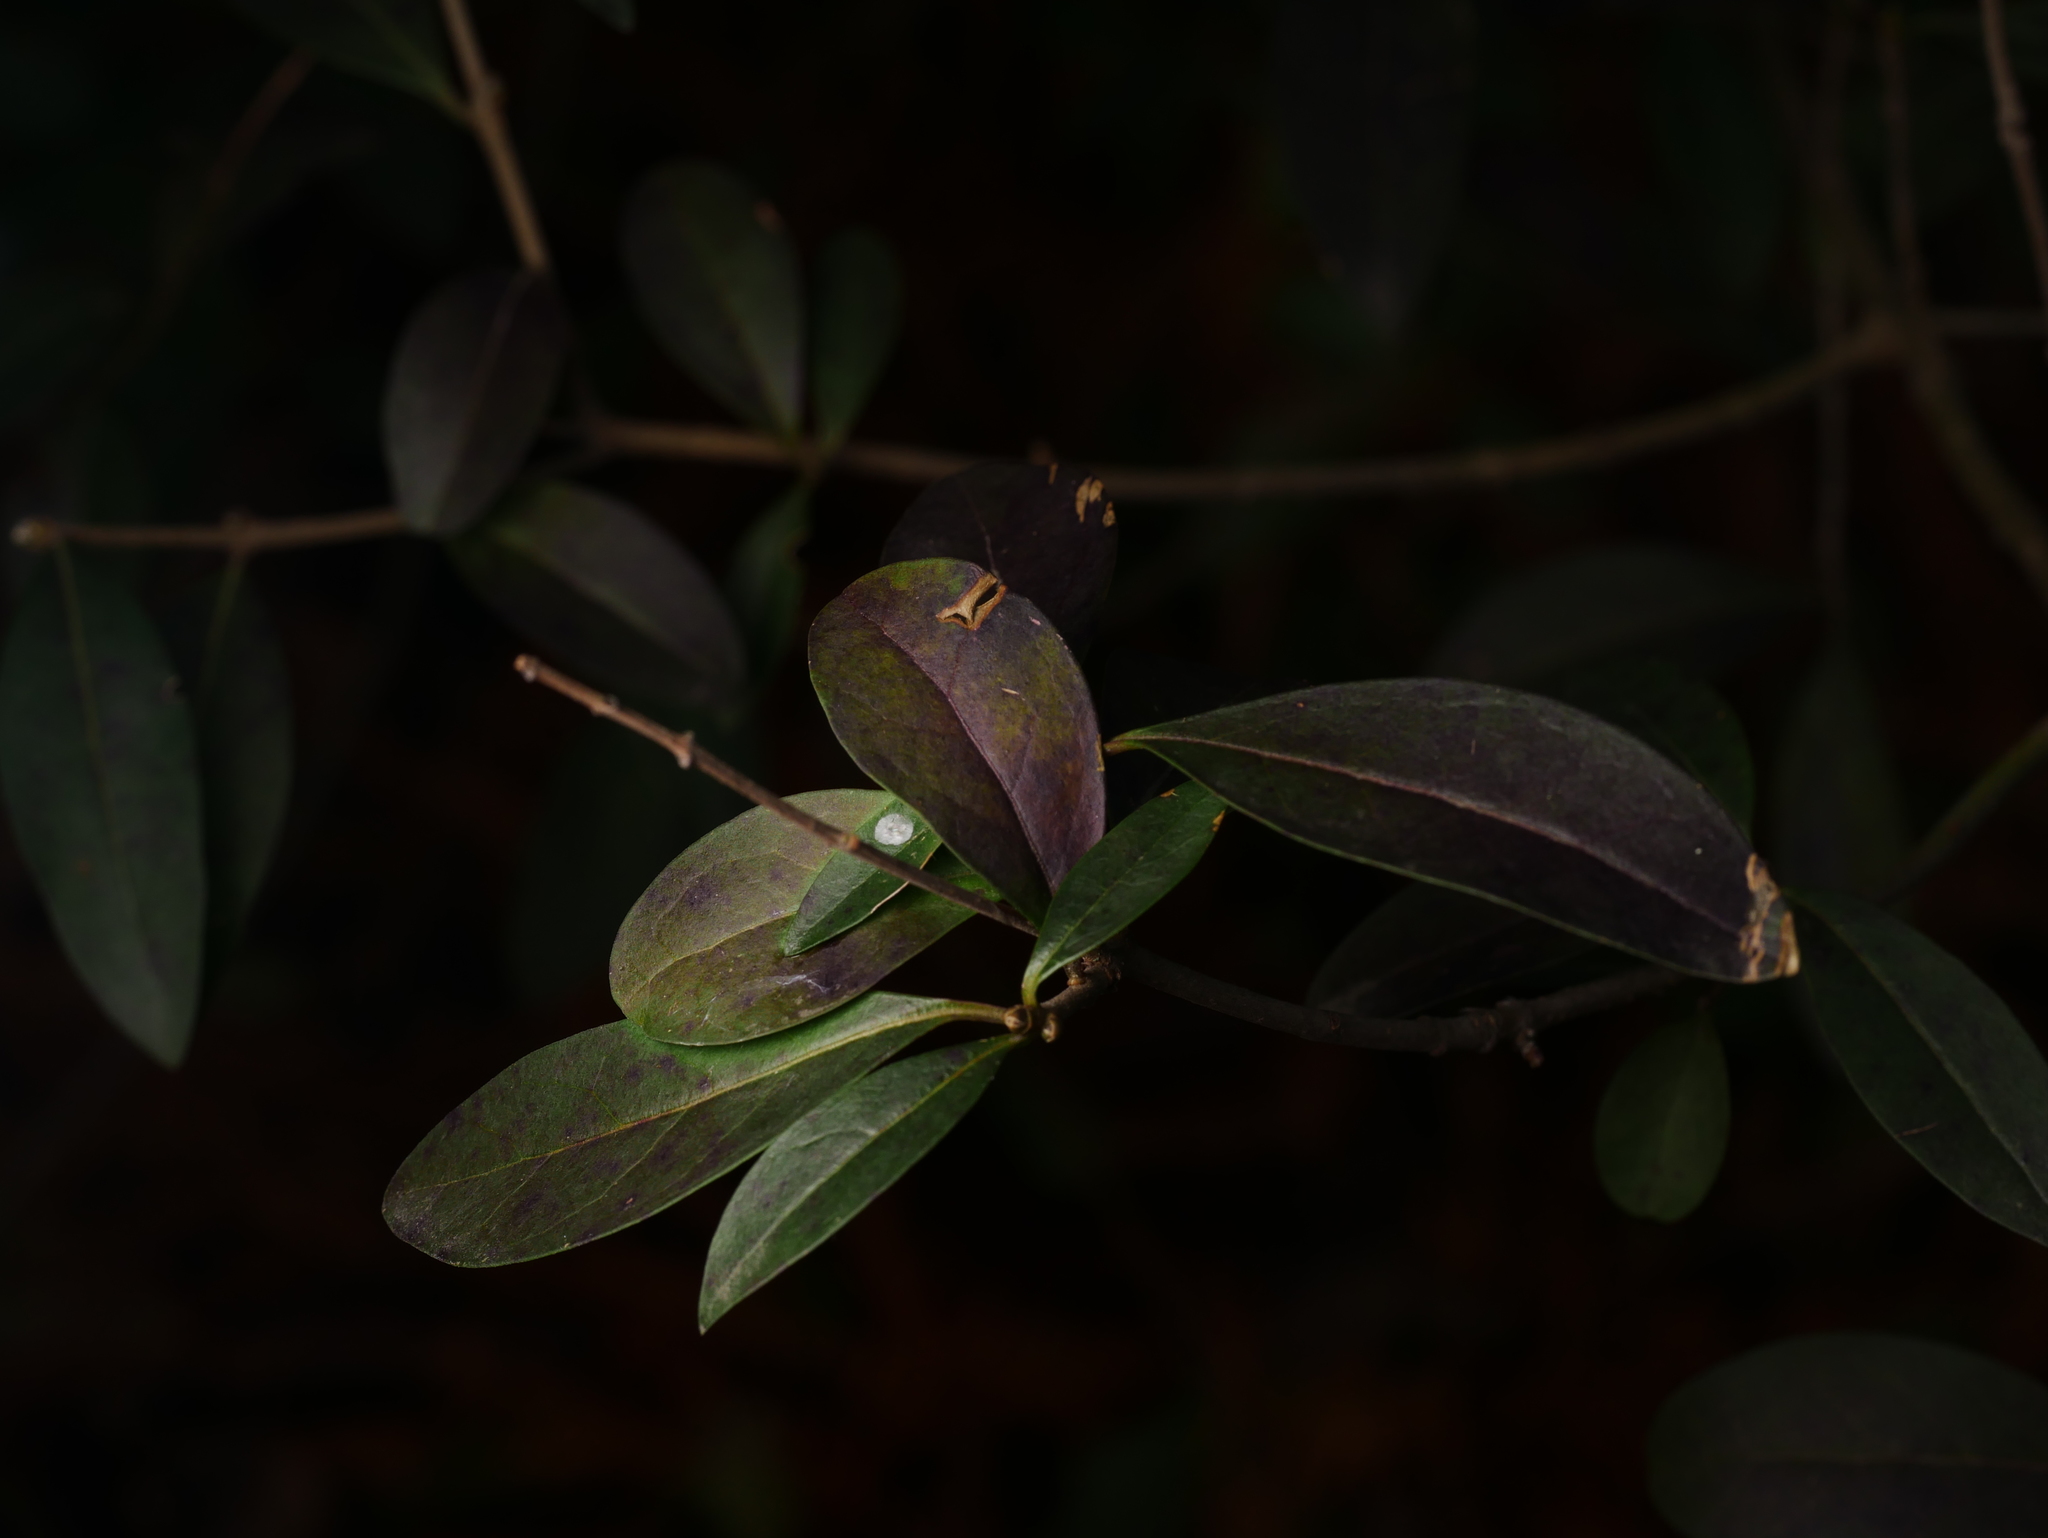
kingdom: Plantae
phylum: Tracheophyta
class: Magnoliopsida
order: Lamiales
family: Oleaceae
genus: Ligustrum
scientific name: Ligustrum vulgare
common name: Wild privet
